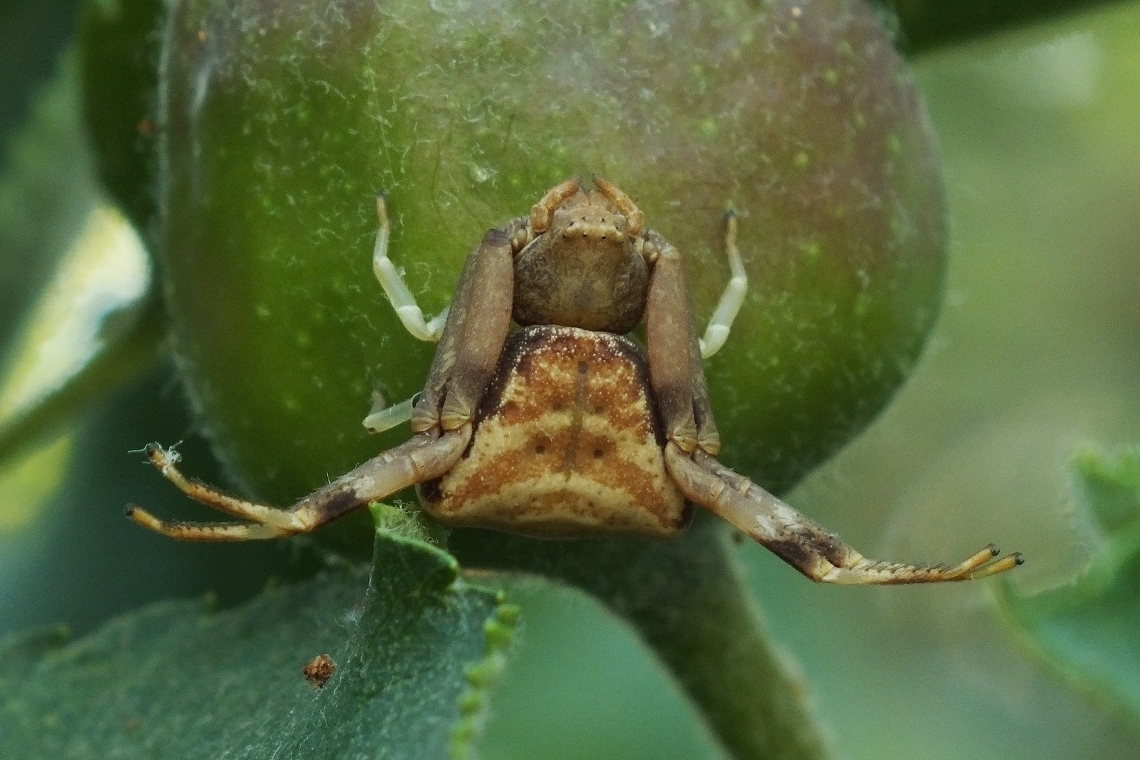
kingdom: Animalia
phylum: Arthropoda
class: Arachnida
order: Araneae
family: Thomisidae
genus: Pistius
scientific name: Pistius truncatus
